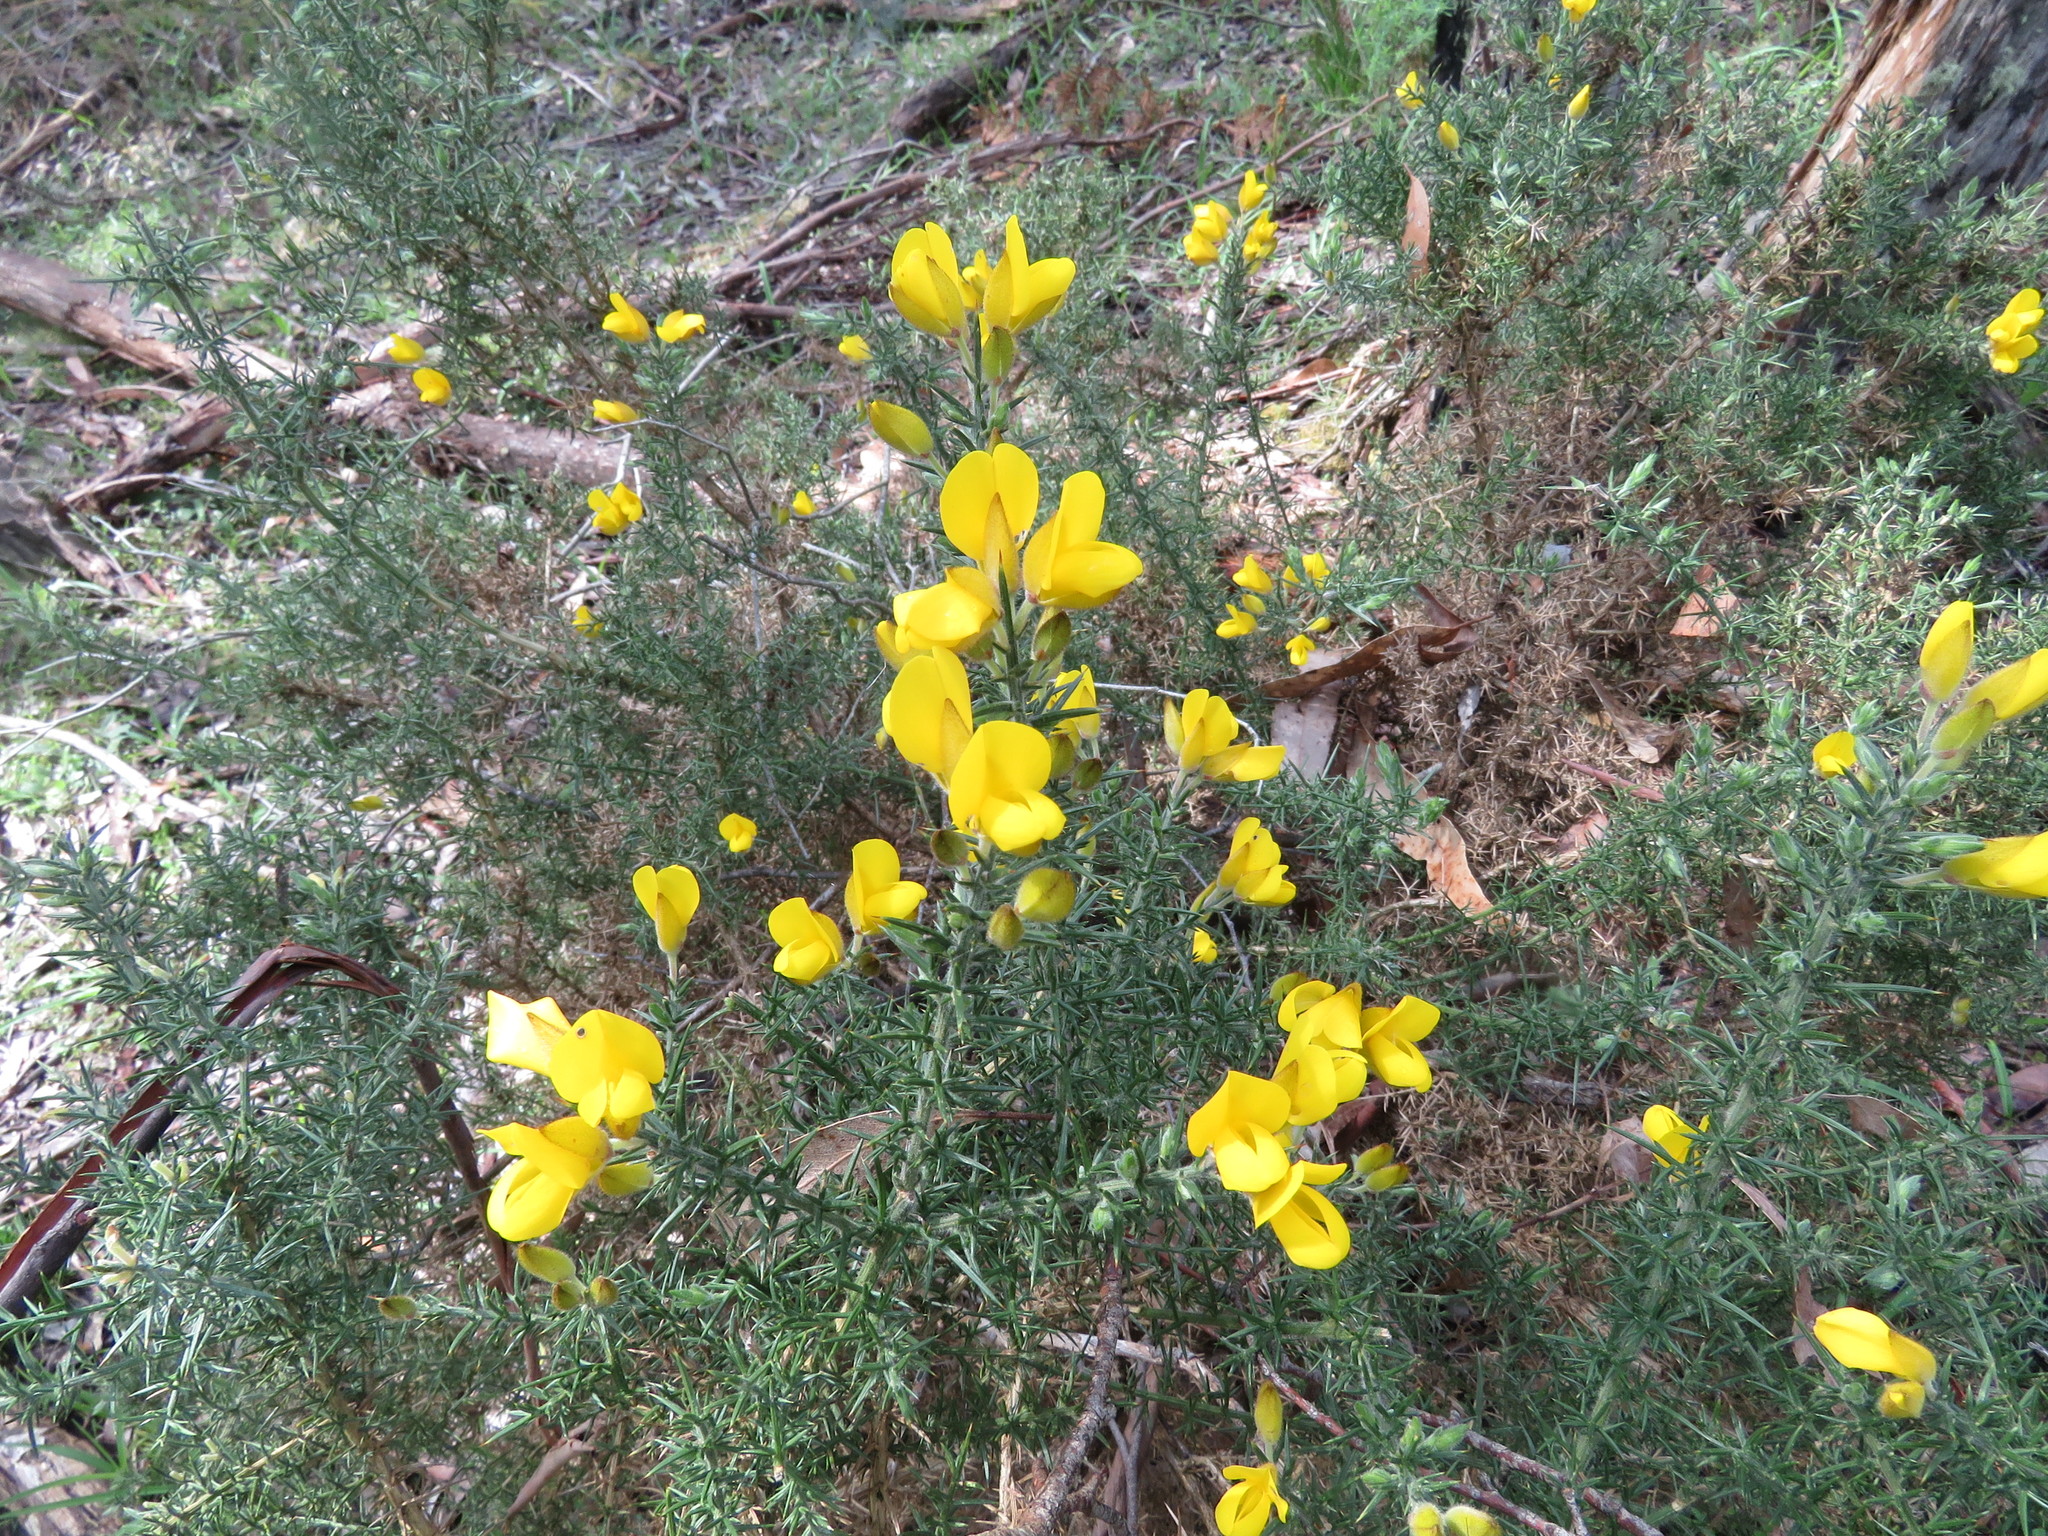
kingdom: Plantae
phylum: Tracheophyta
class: Magnoliopsida
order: Fabales
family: Fabaceae
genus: Ulex
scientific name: Ulex europaeus
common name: Common gorse
